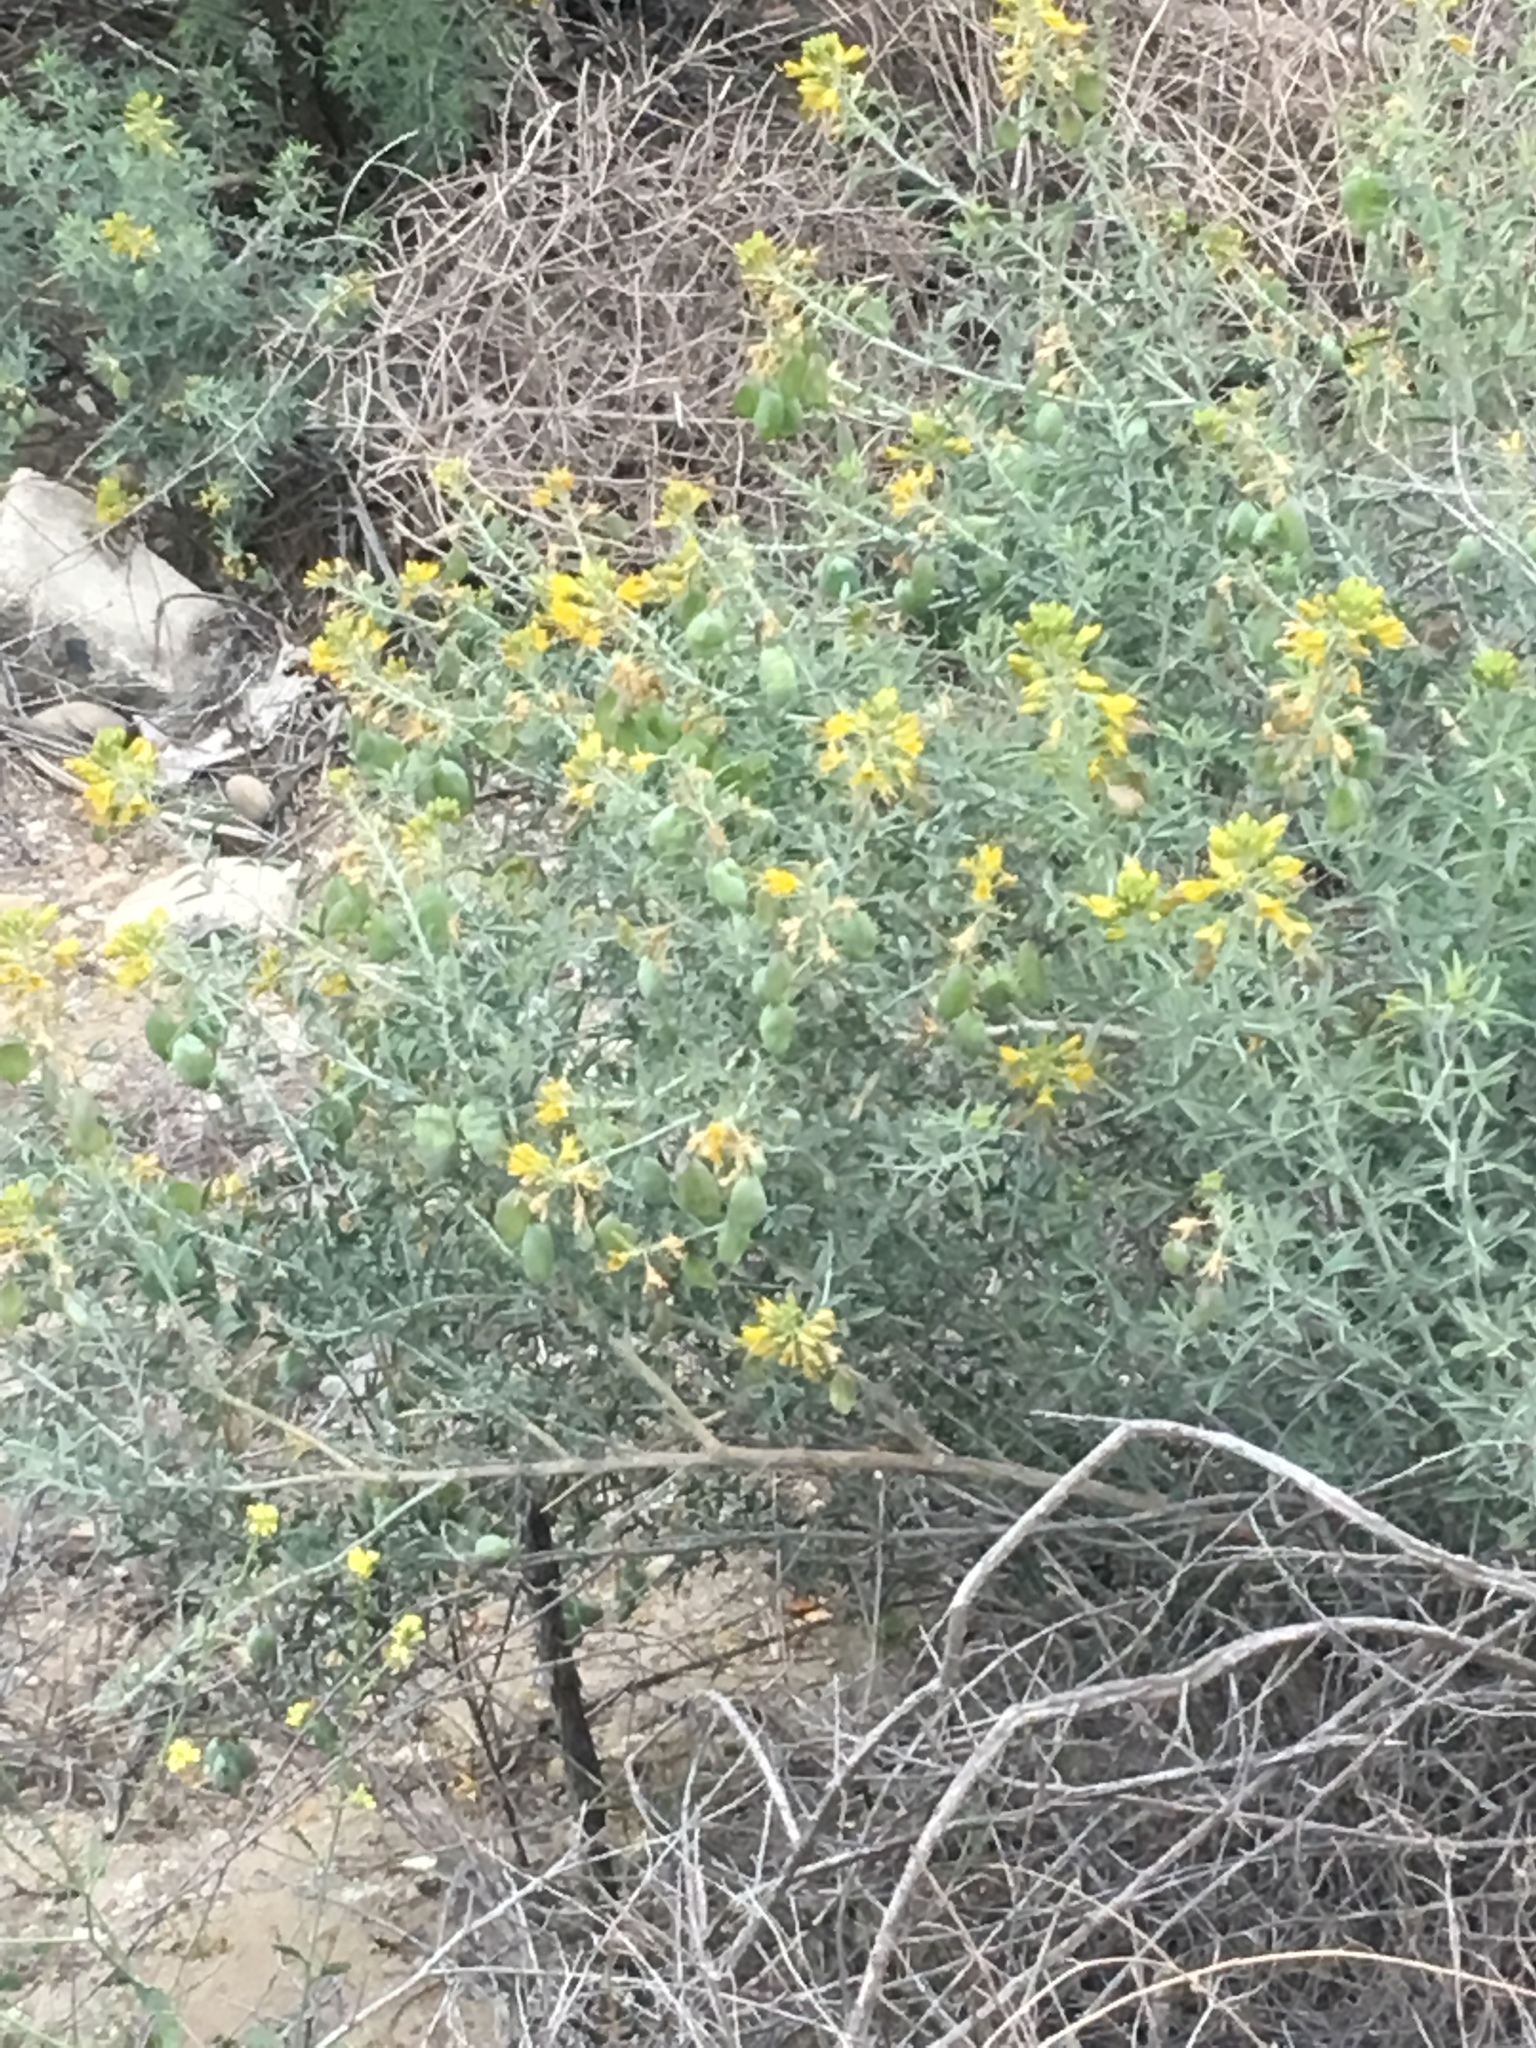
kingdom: Plantae
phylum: Tracheophyta
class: Magnoliopsida
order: Brassicales
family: Cleomaceae
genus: Cleomella
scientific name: Cleomella arborea
